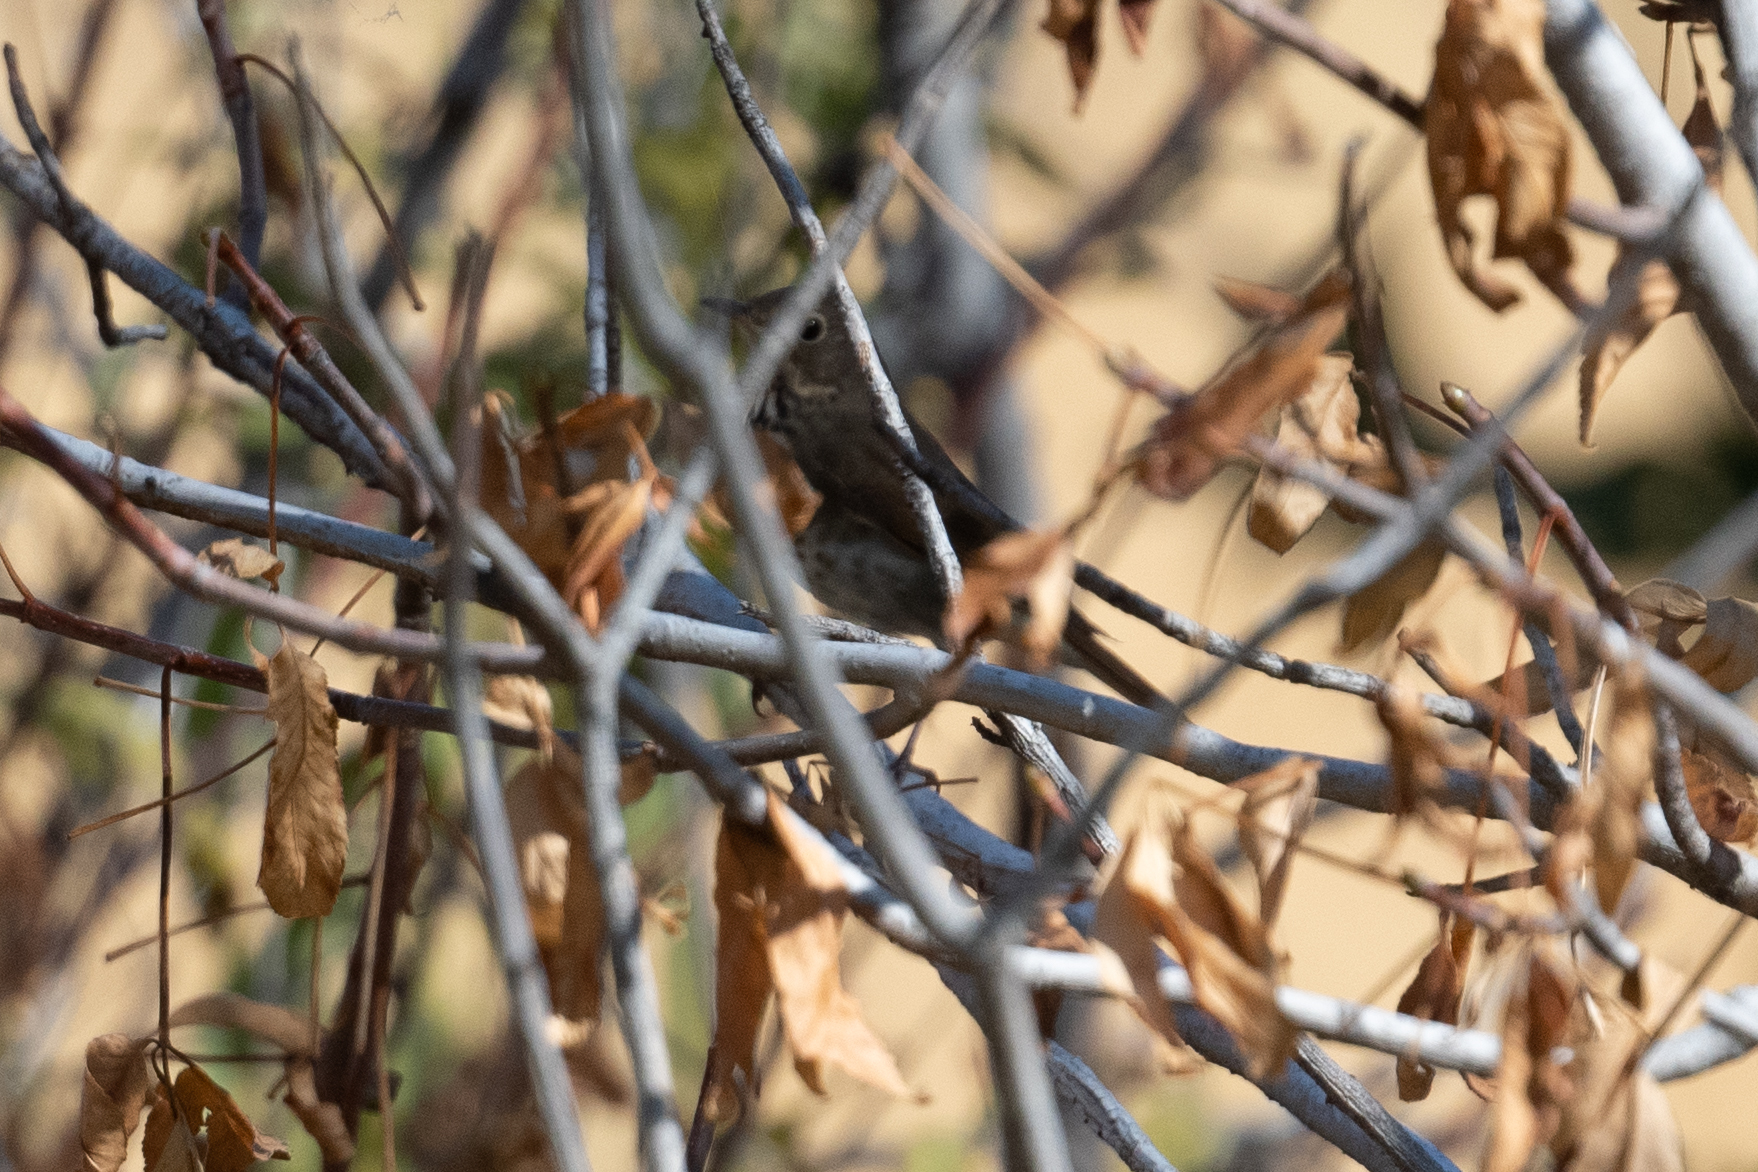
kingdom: Animalia
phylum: Chordata
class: Aves
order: Passeriformes
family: Turdidae
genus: Catharus
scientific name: Catharus guttatus
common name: Hermit thrush
